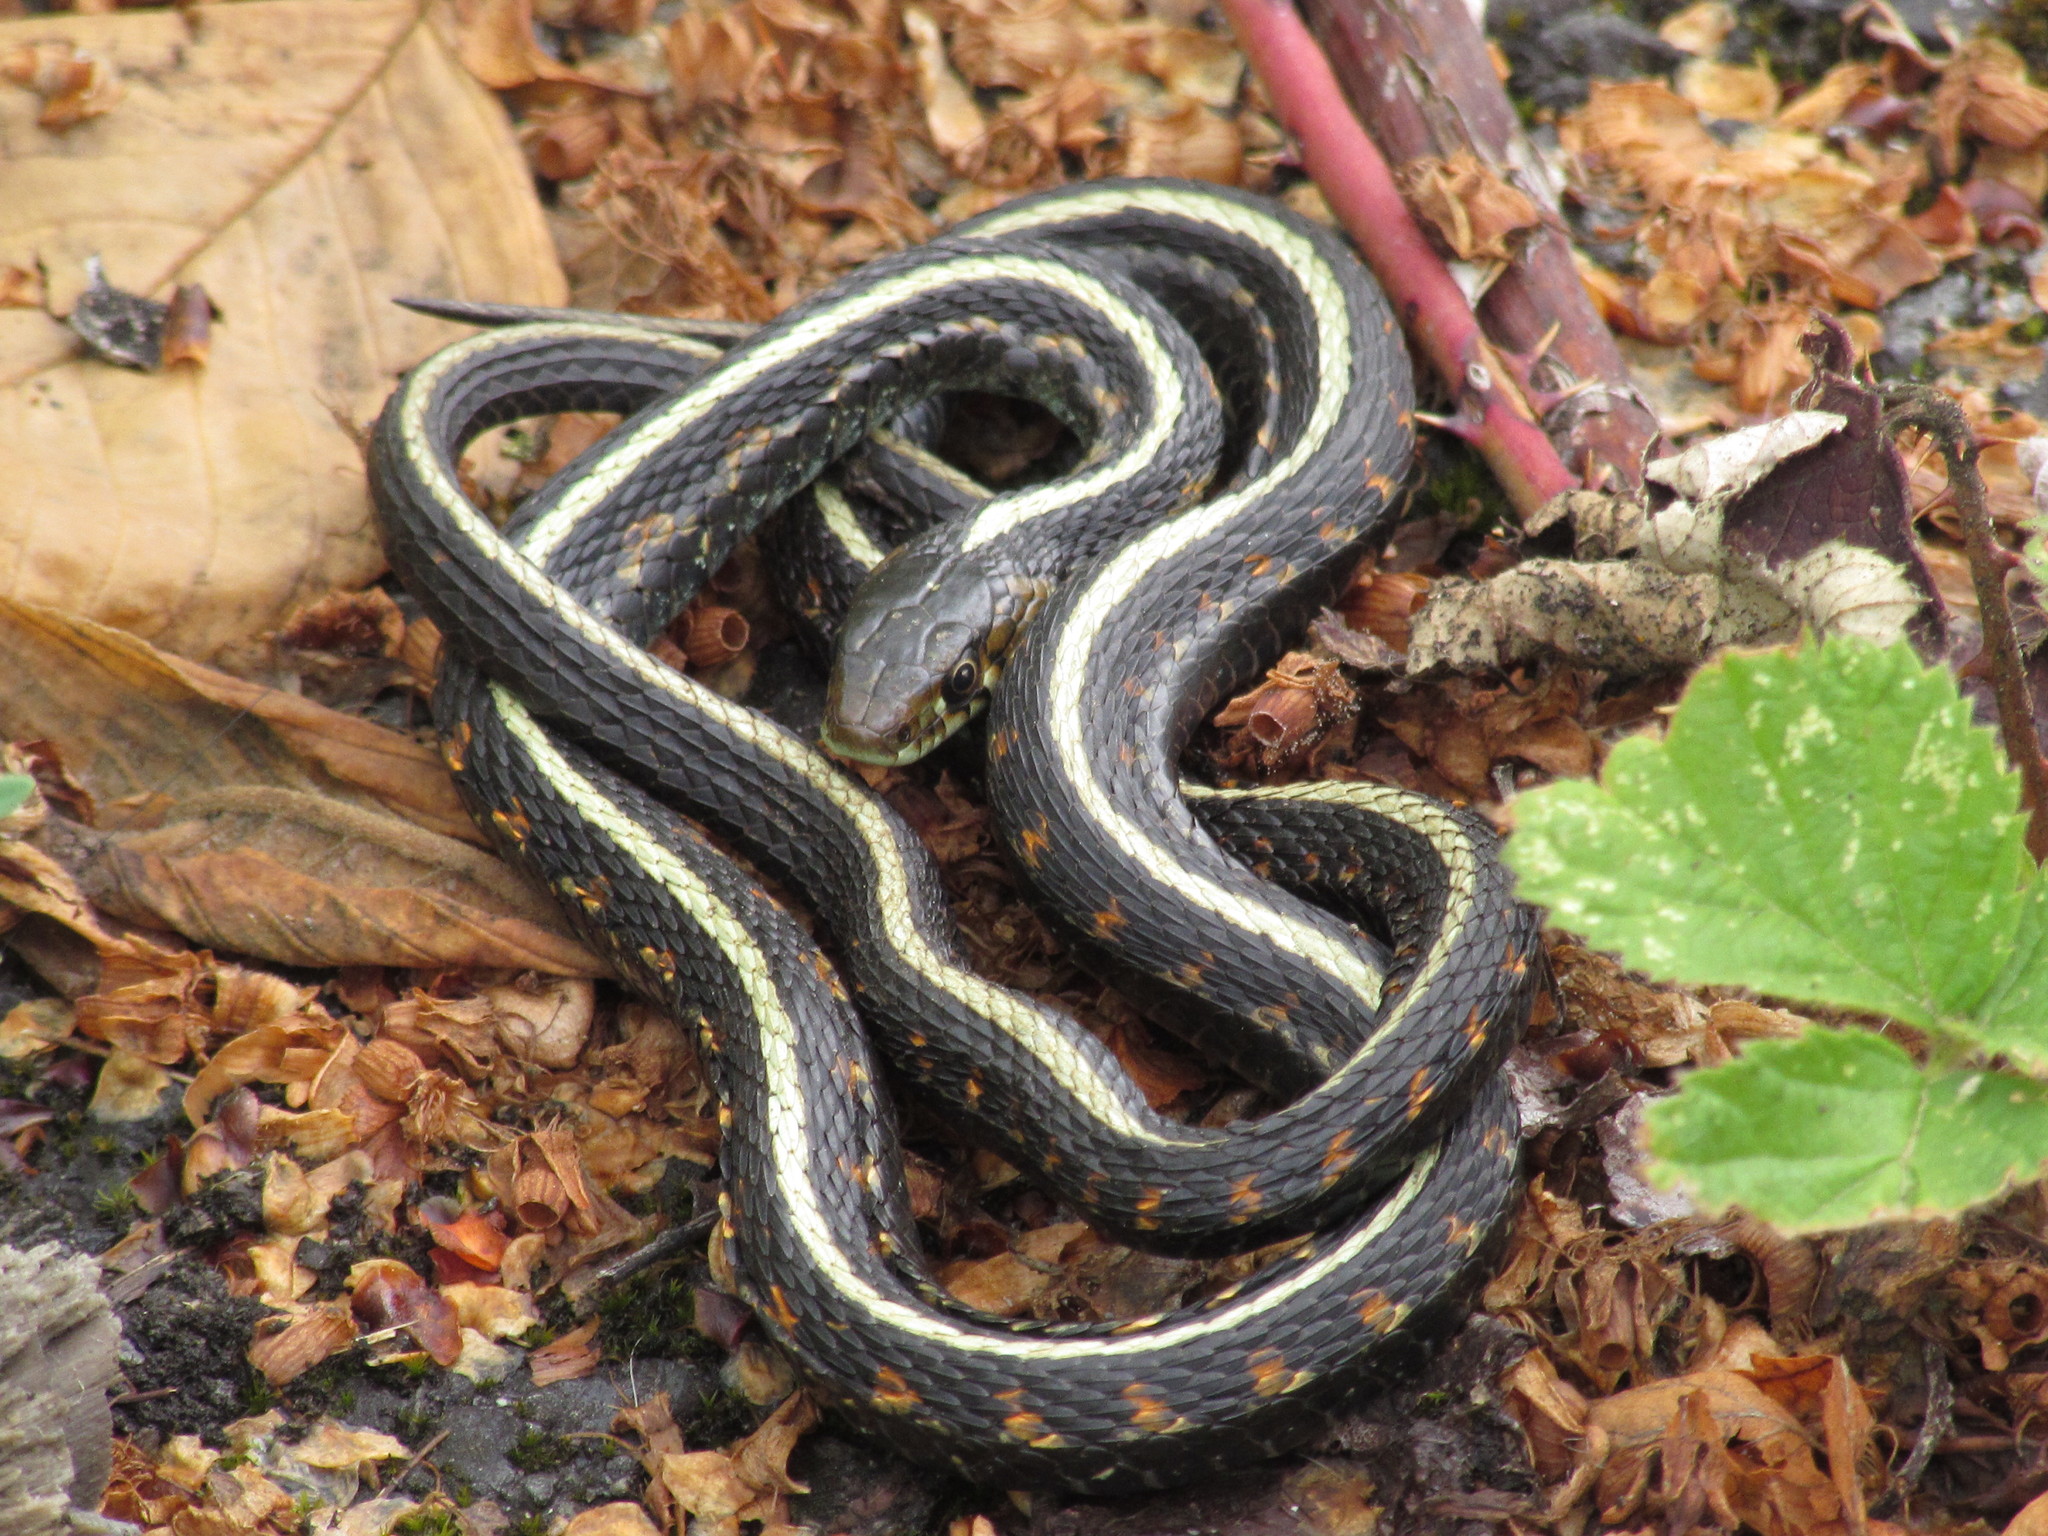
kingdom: Animalia
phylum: Chordata
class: Squamata
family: Colubridae
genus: Thamnophis
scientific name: Thamnophis sirtalis
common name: Common garter snake
